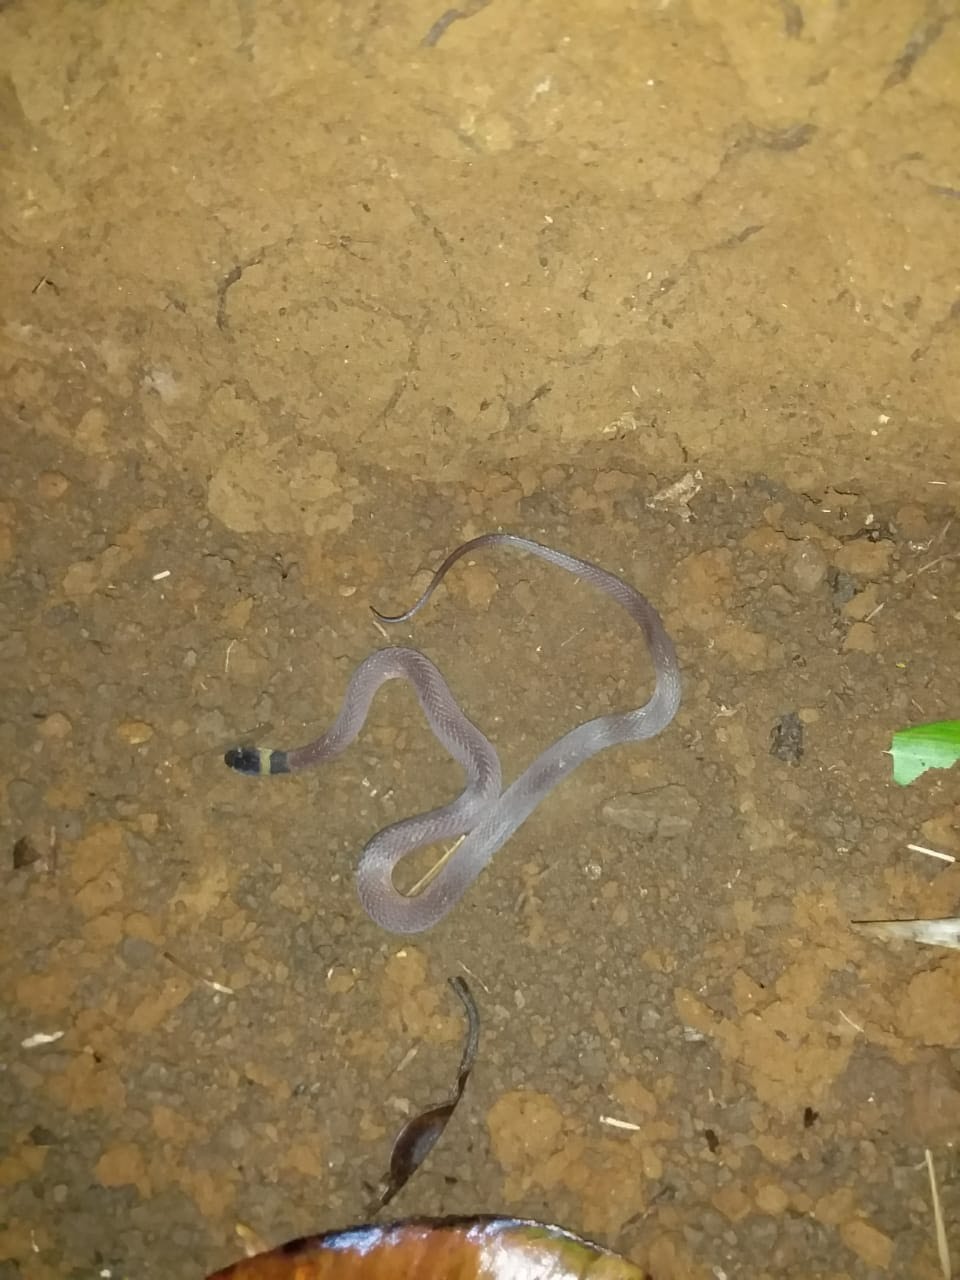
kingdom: Animalia
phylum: Chordata
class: Squamata
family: Colubridae
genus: Ninia
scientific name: Ninia sebae
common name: Redback coffee snake
